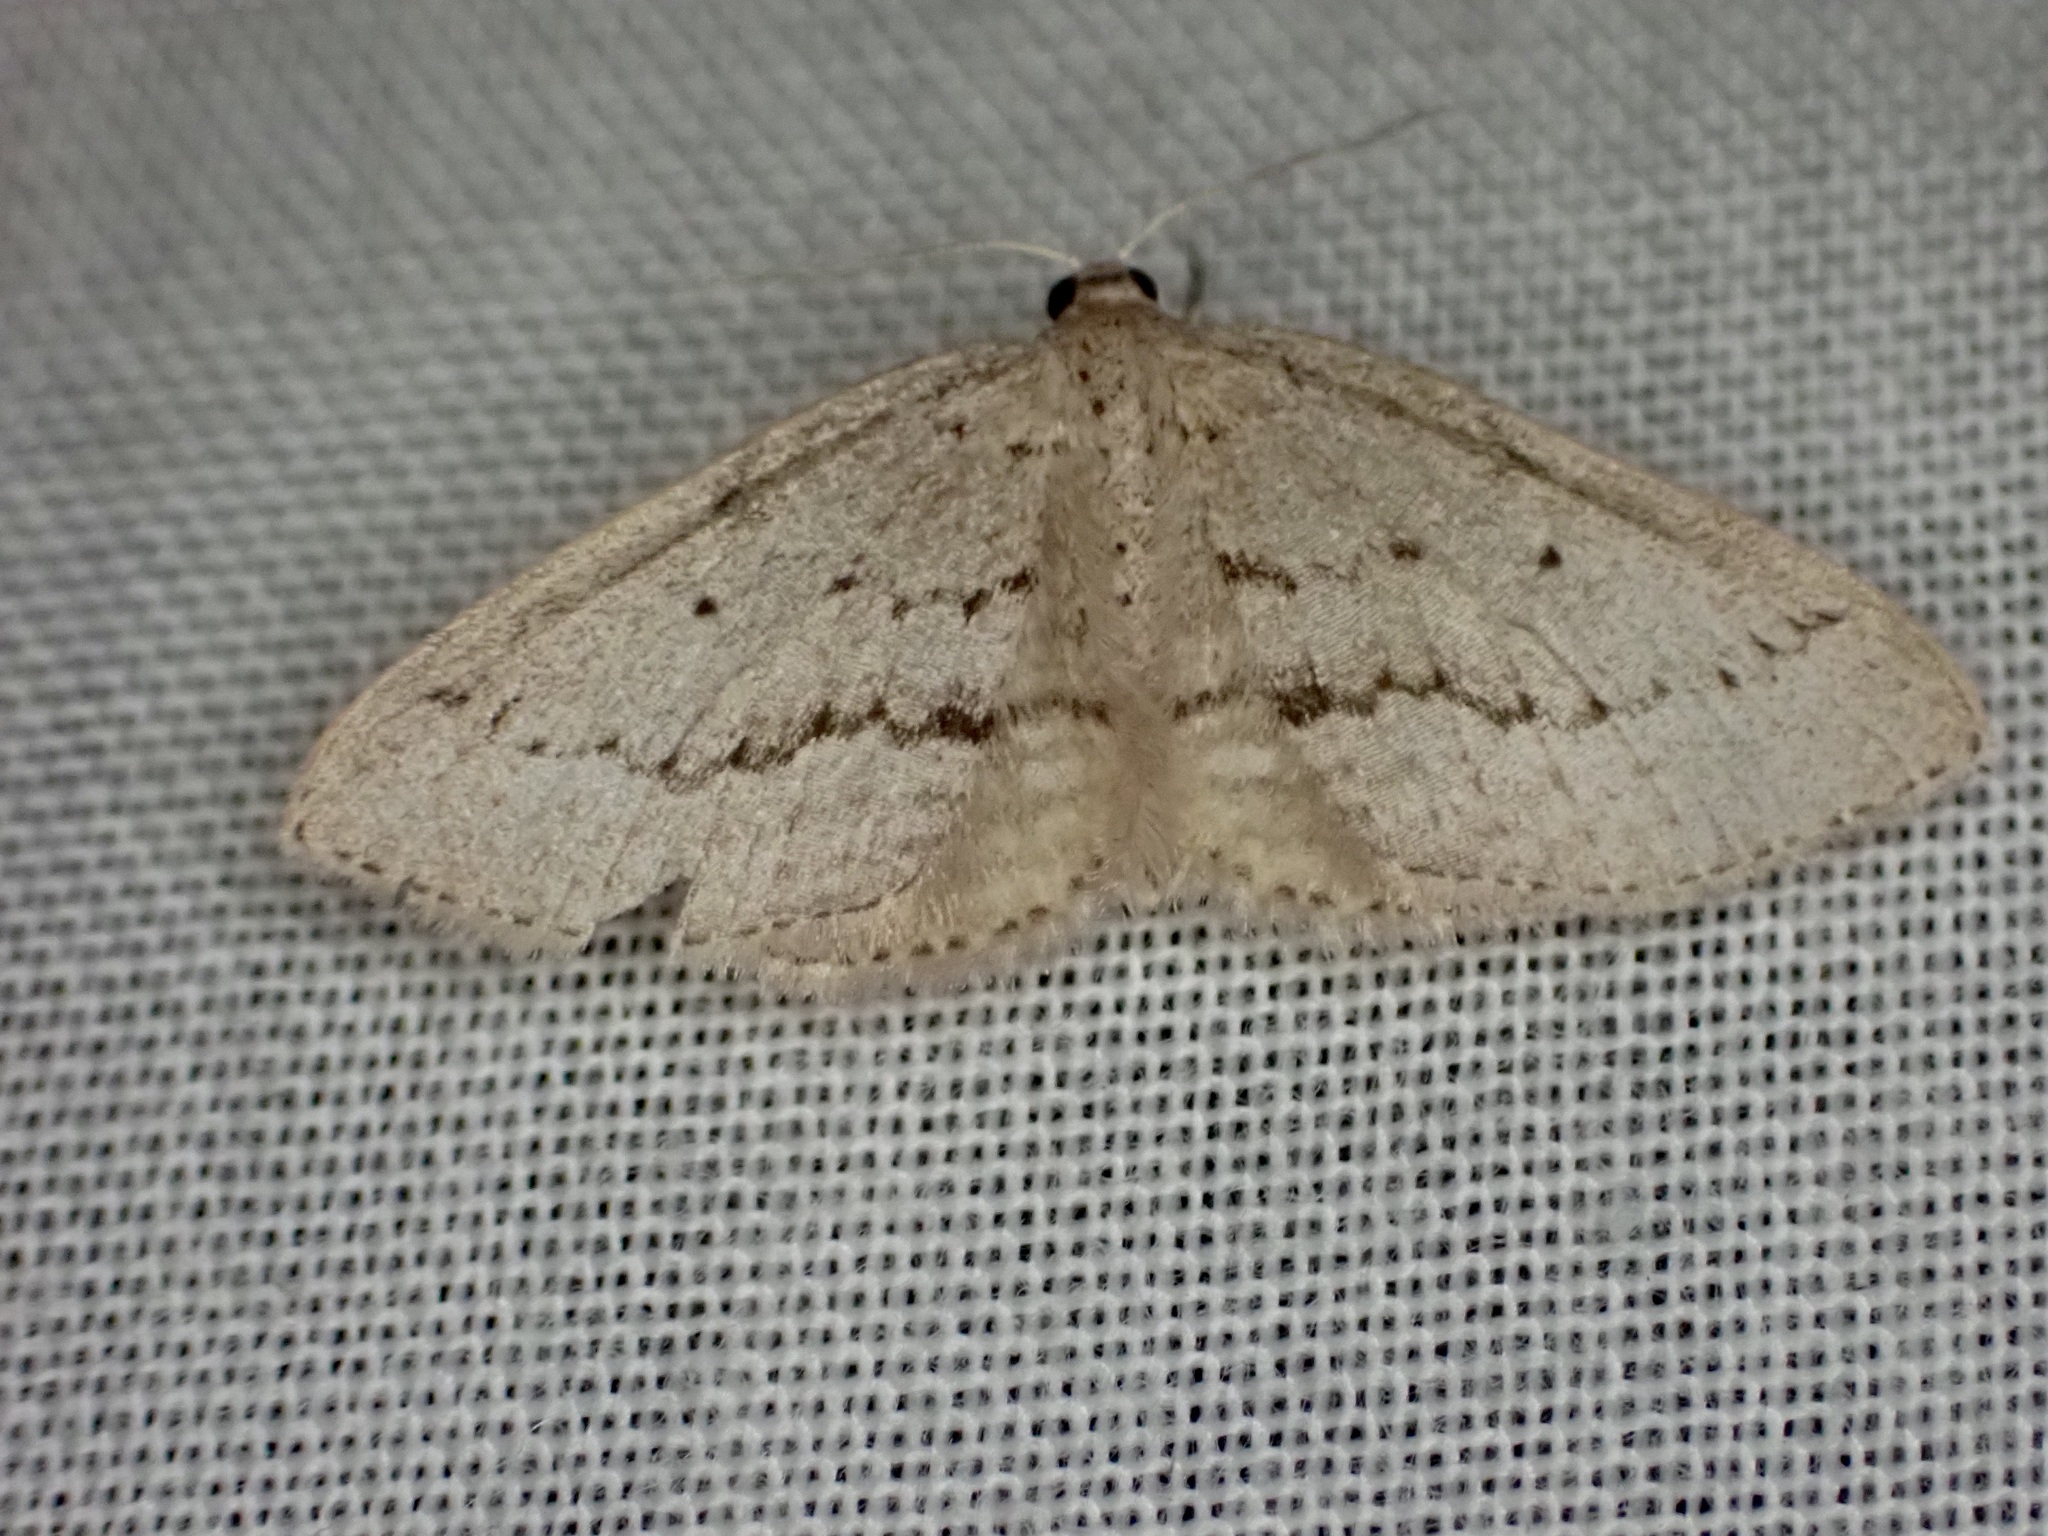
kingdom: Animalia
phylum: Arthropoda
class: Insecta
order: Lepidoptera
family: Geometridae
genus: Poecilasthena
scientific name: Poecilasthena schistaria
